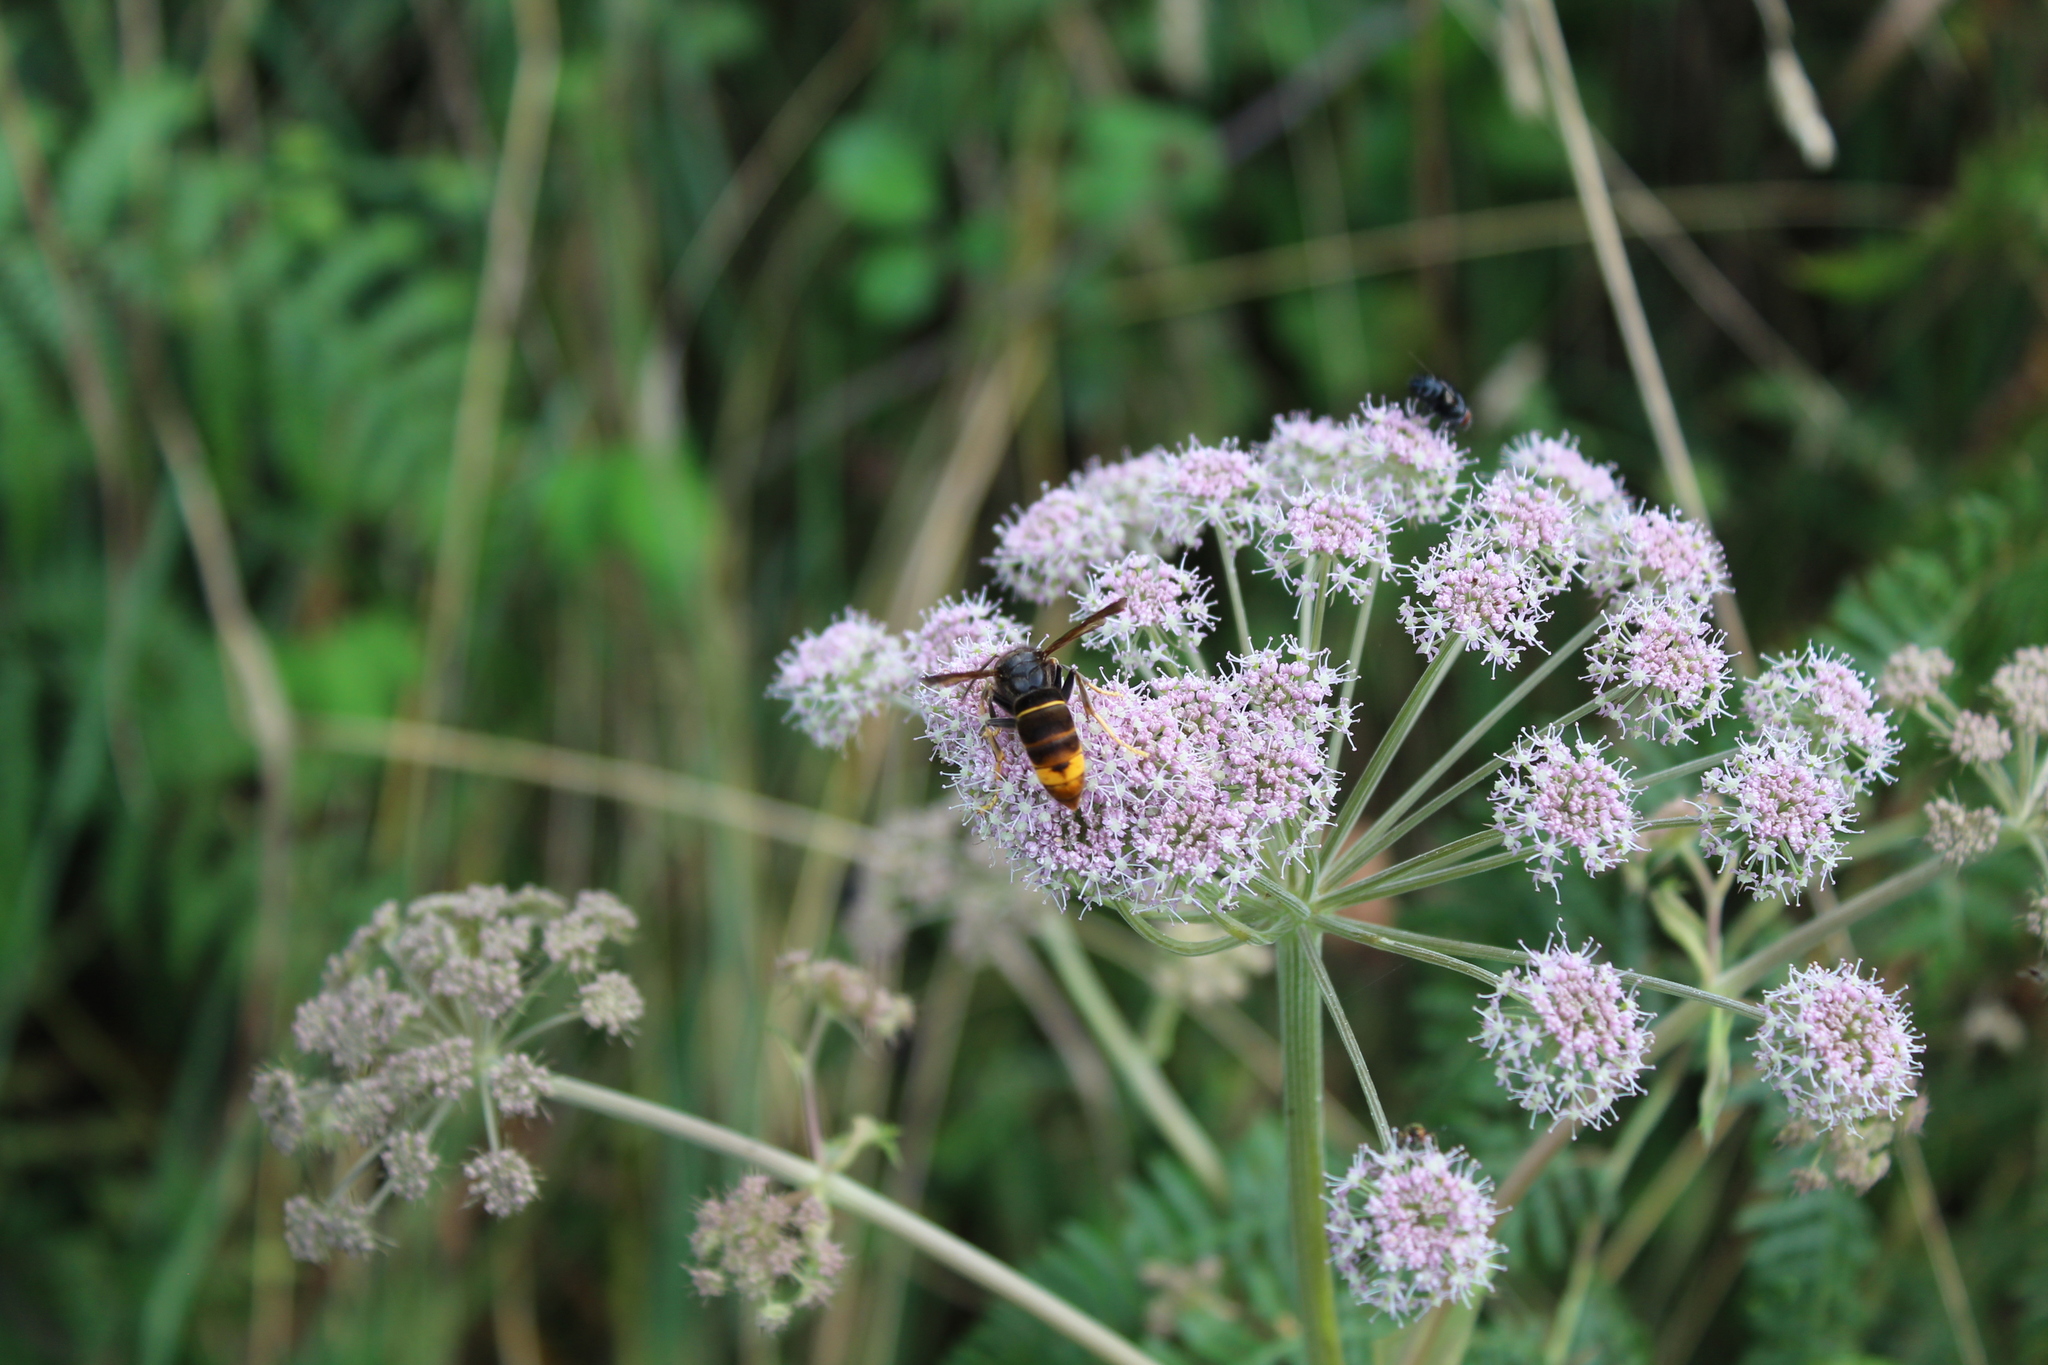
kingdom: Animalia
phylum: Arthropoda
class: Insecta
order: Hymenoptera
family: Vespidae
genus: Vespa
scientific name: Vespa velutina
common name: Asian hornet
